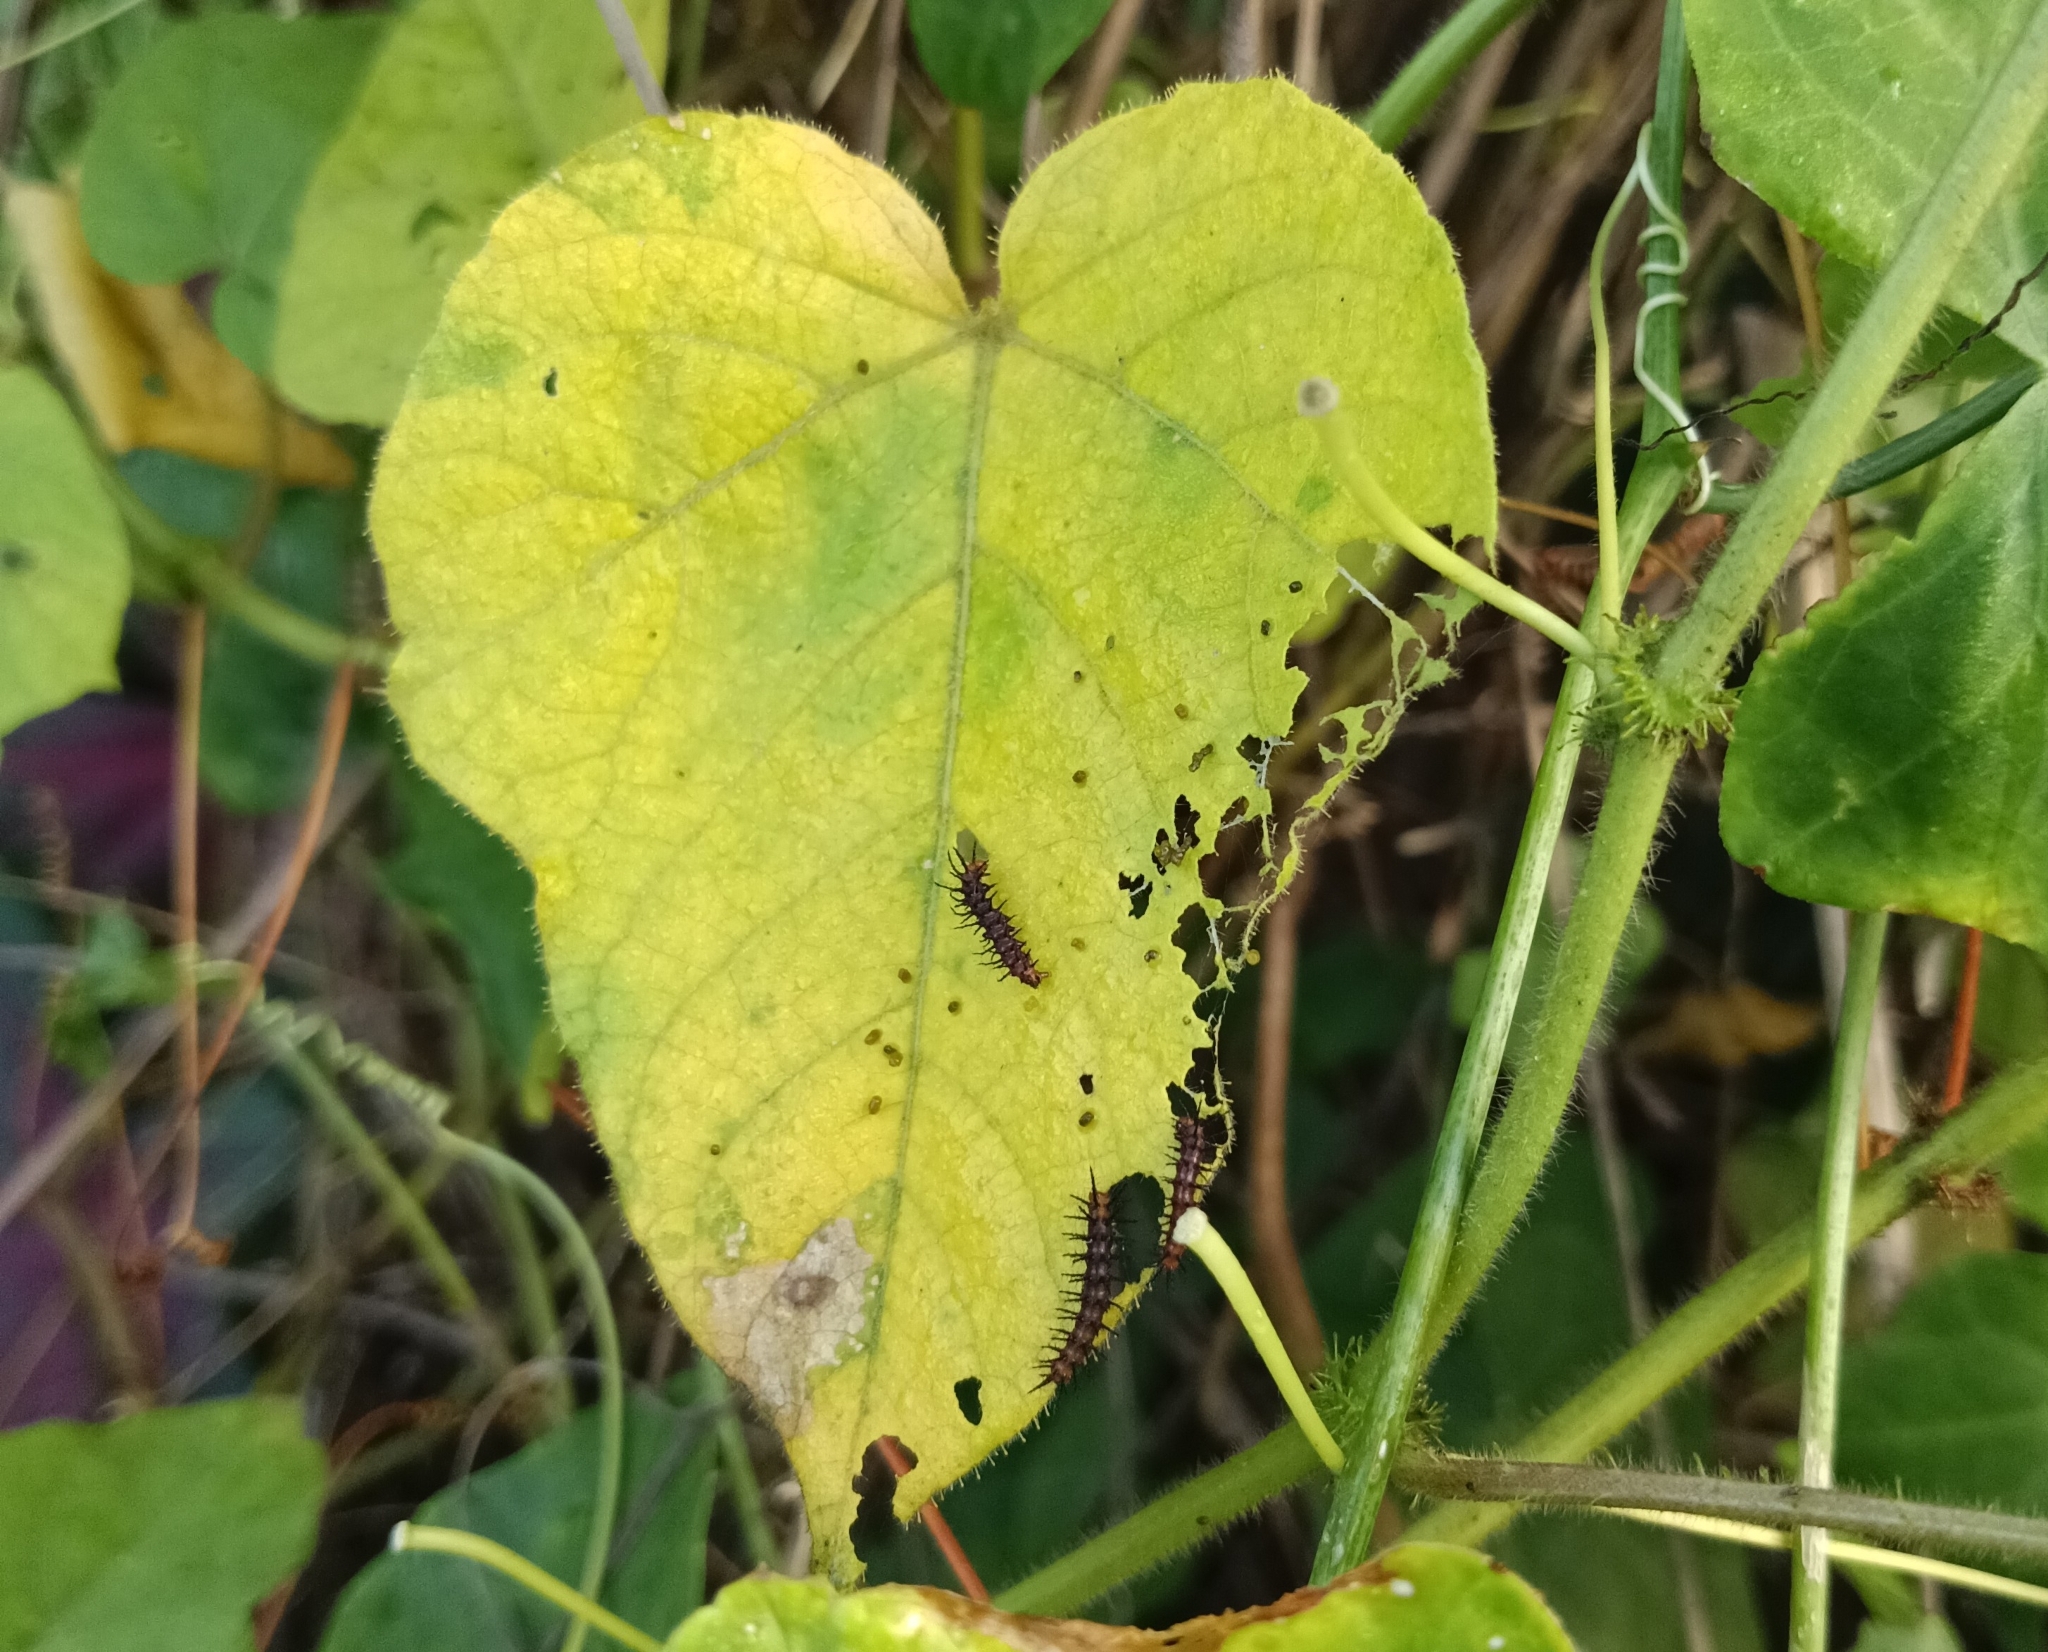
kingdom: Animalia
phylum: Arthropoda
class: Insecta
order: Lepidoptera
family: Nymphalidae
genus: Acraea
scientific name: Acraea terpsicore
